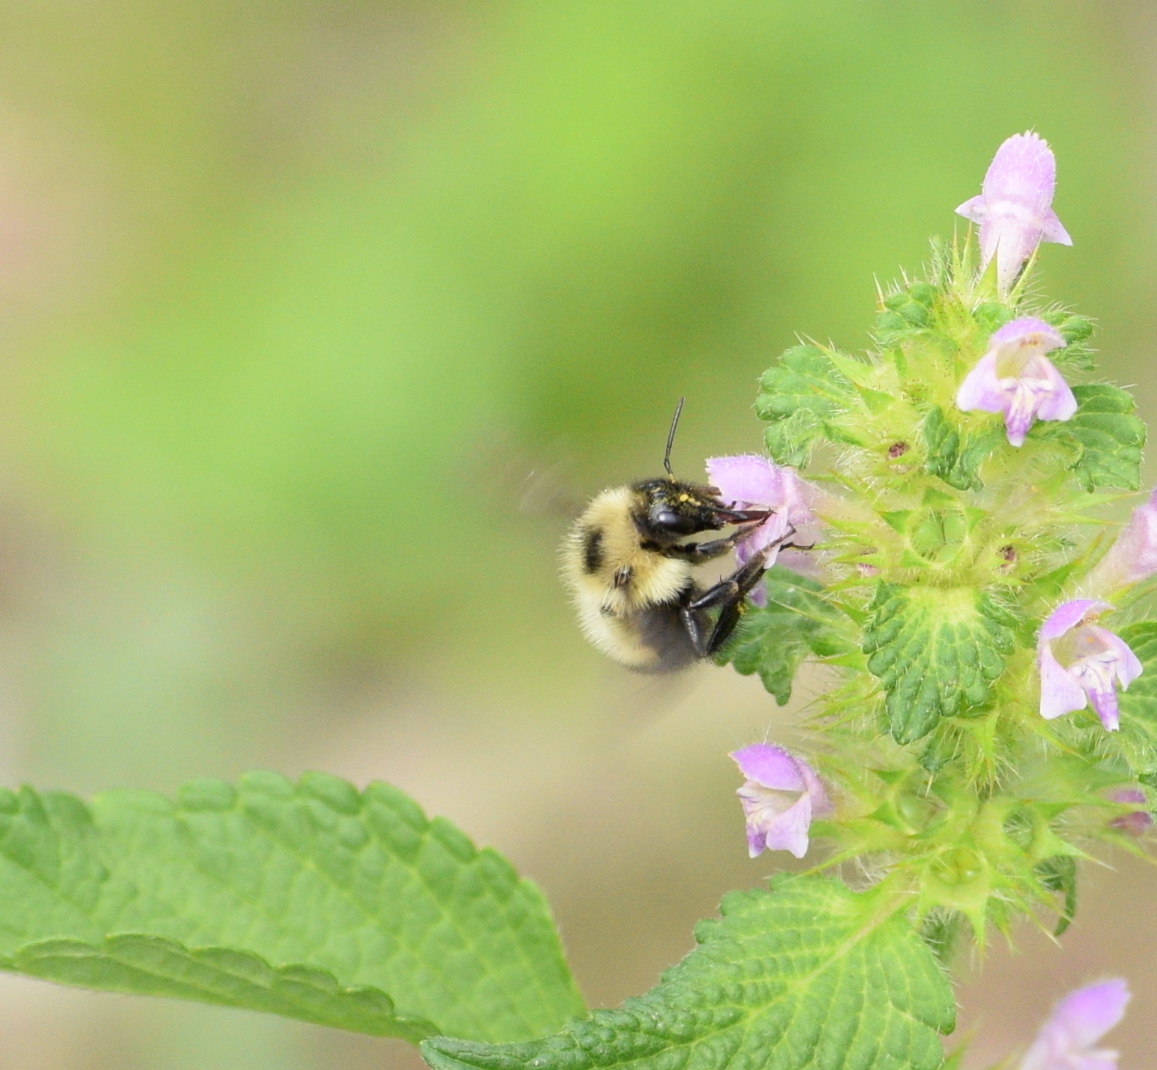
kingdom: Animalia
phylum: Arthropoda
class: Insecta
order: Hymenoptera
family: Apidae
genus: Bombus
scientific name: Bombus vagans
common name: Half-black bumble bee
